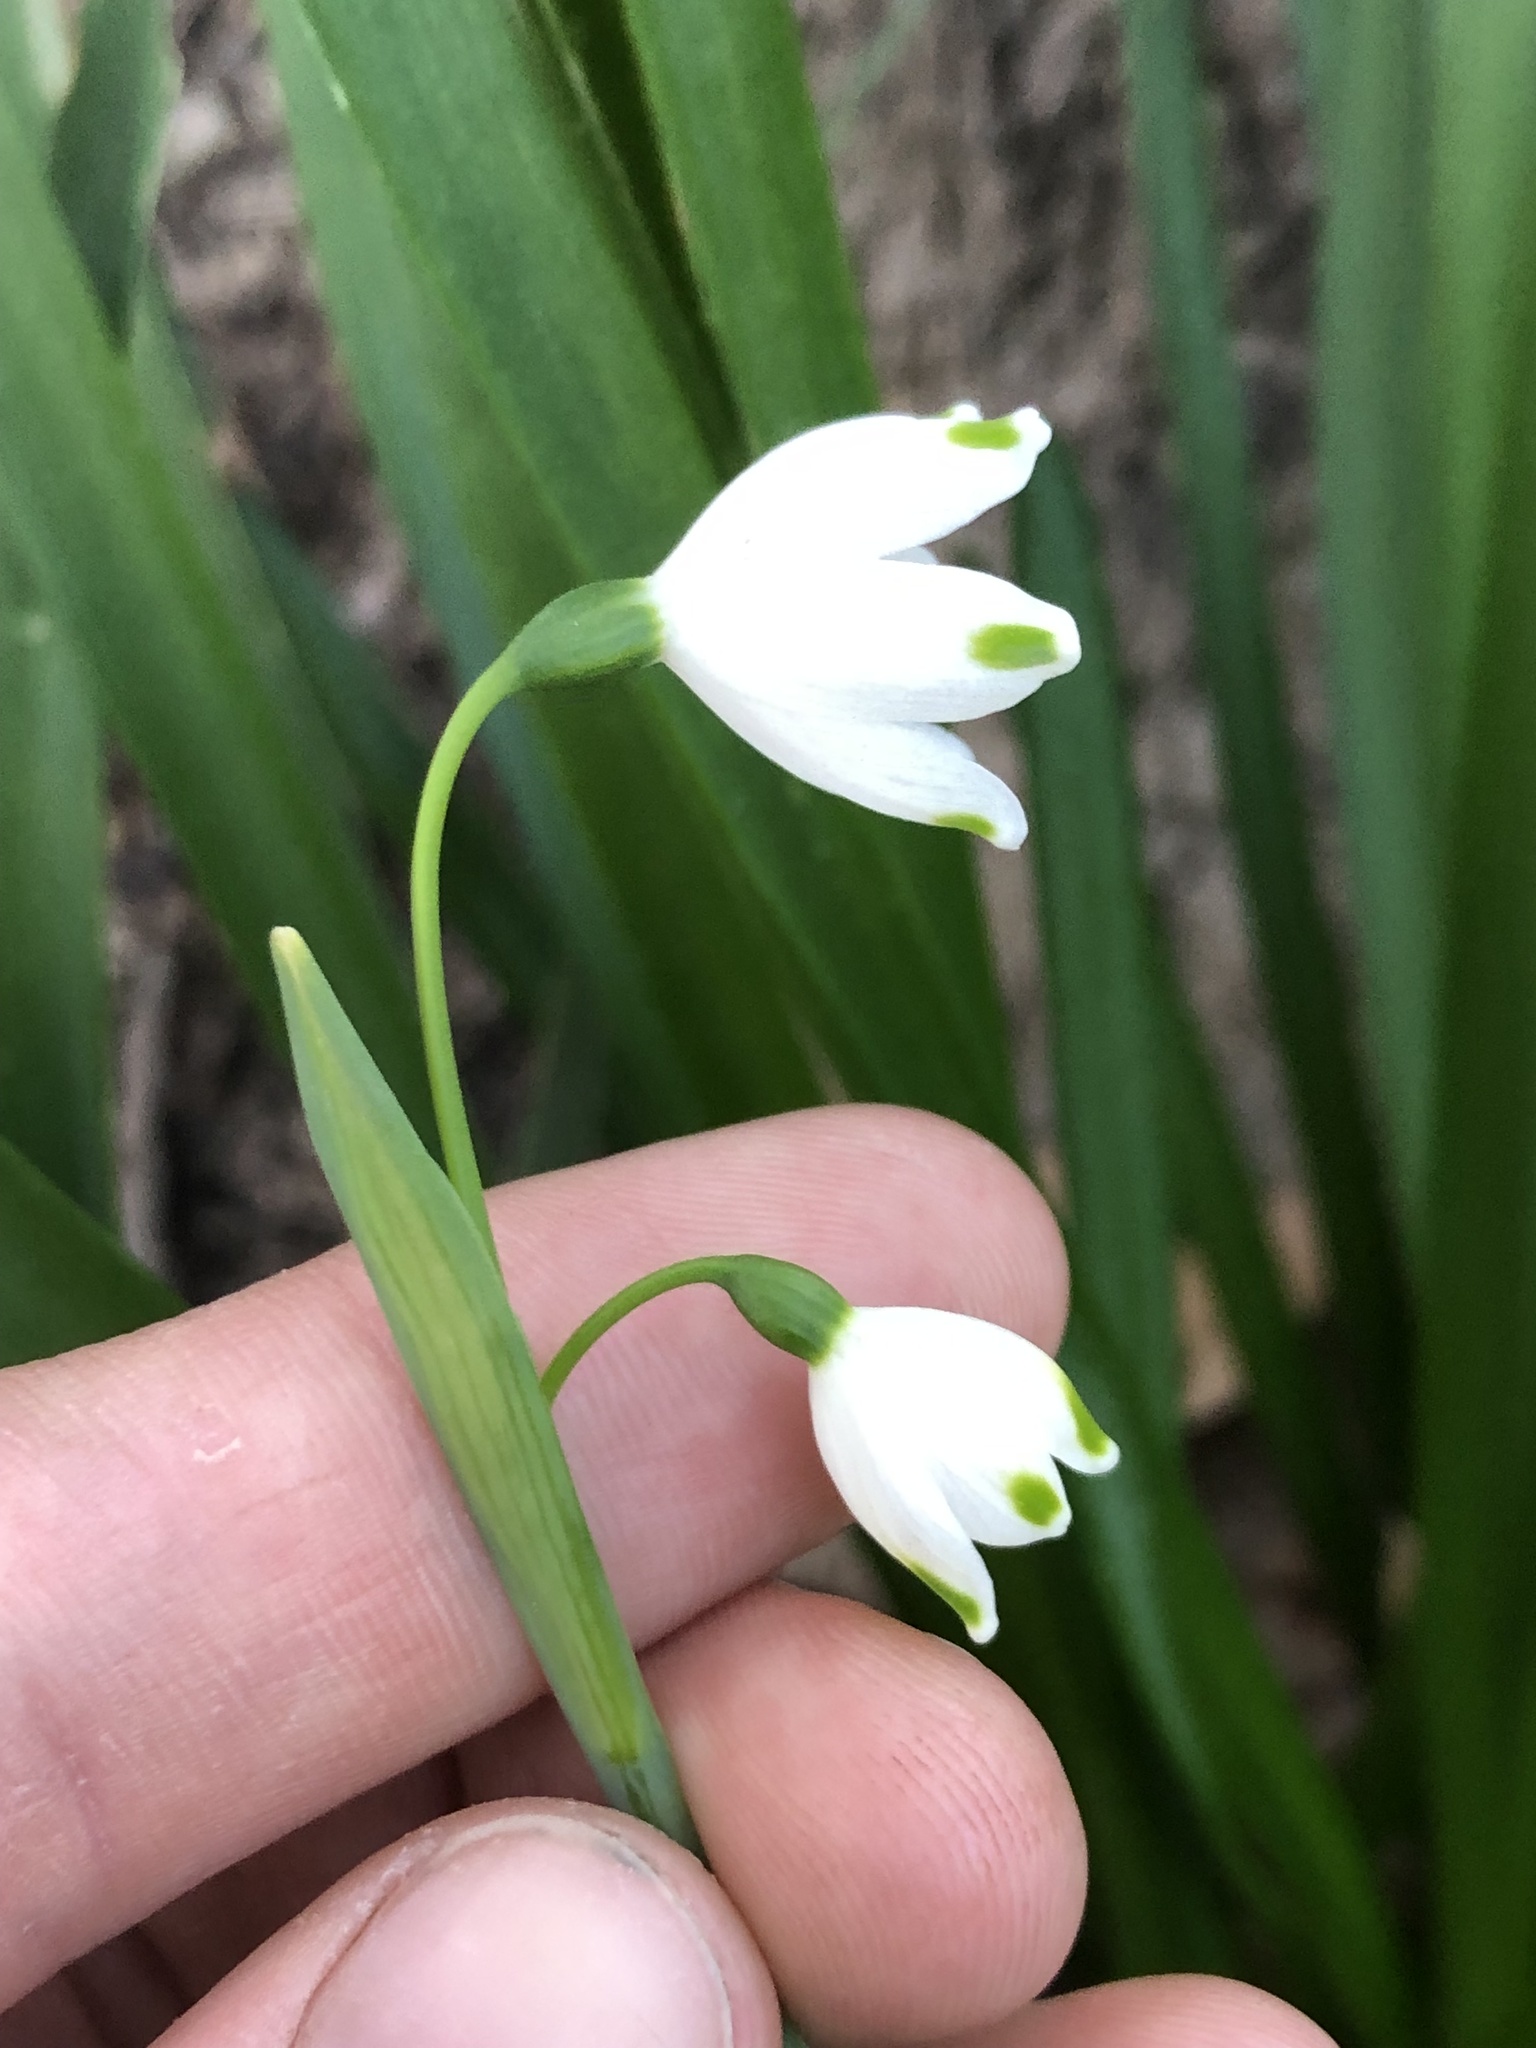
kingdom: Plantae
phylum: Tracheophyta
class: Liliopsida
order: Asparagales
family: Amaryllidaceae
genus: Leucojum
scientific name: Leucojum aestivum
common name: Summer snowflake
